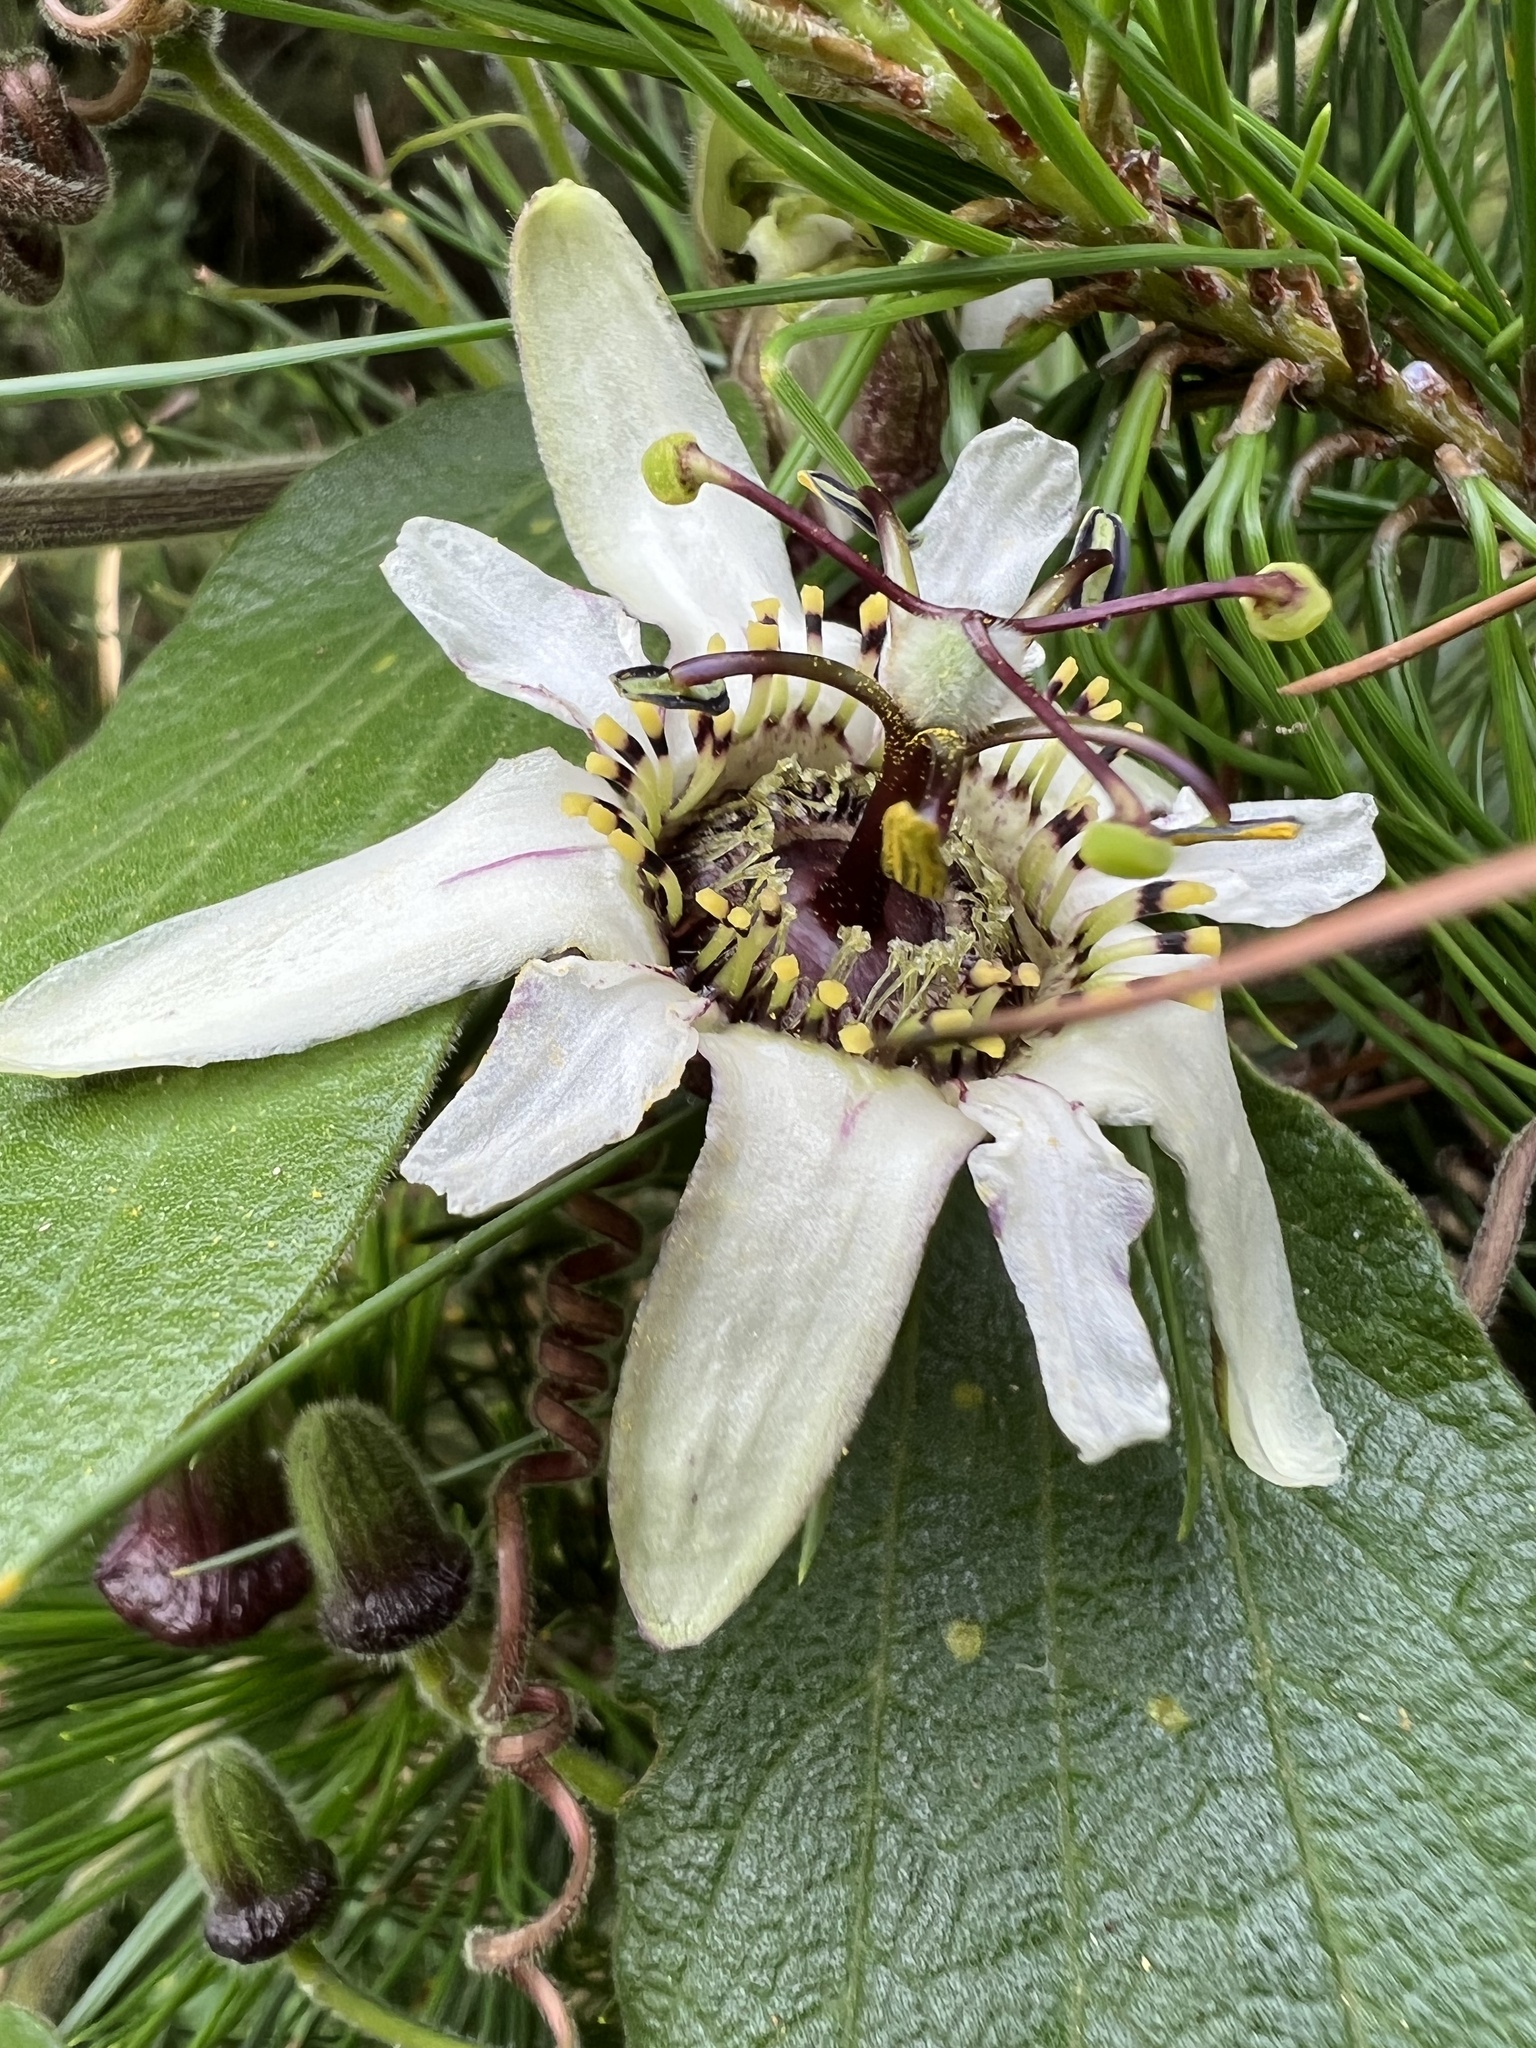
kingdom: Plantae
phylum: Tracheophyta
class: Magnoliopsida
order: Malpighiales
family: Passifloraceae
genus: Passiflora
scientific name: Passiflora bogotensis
